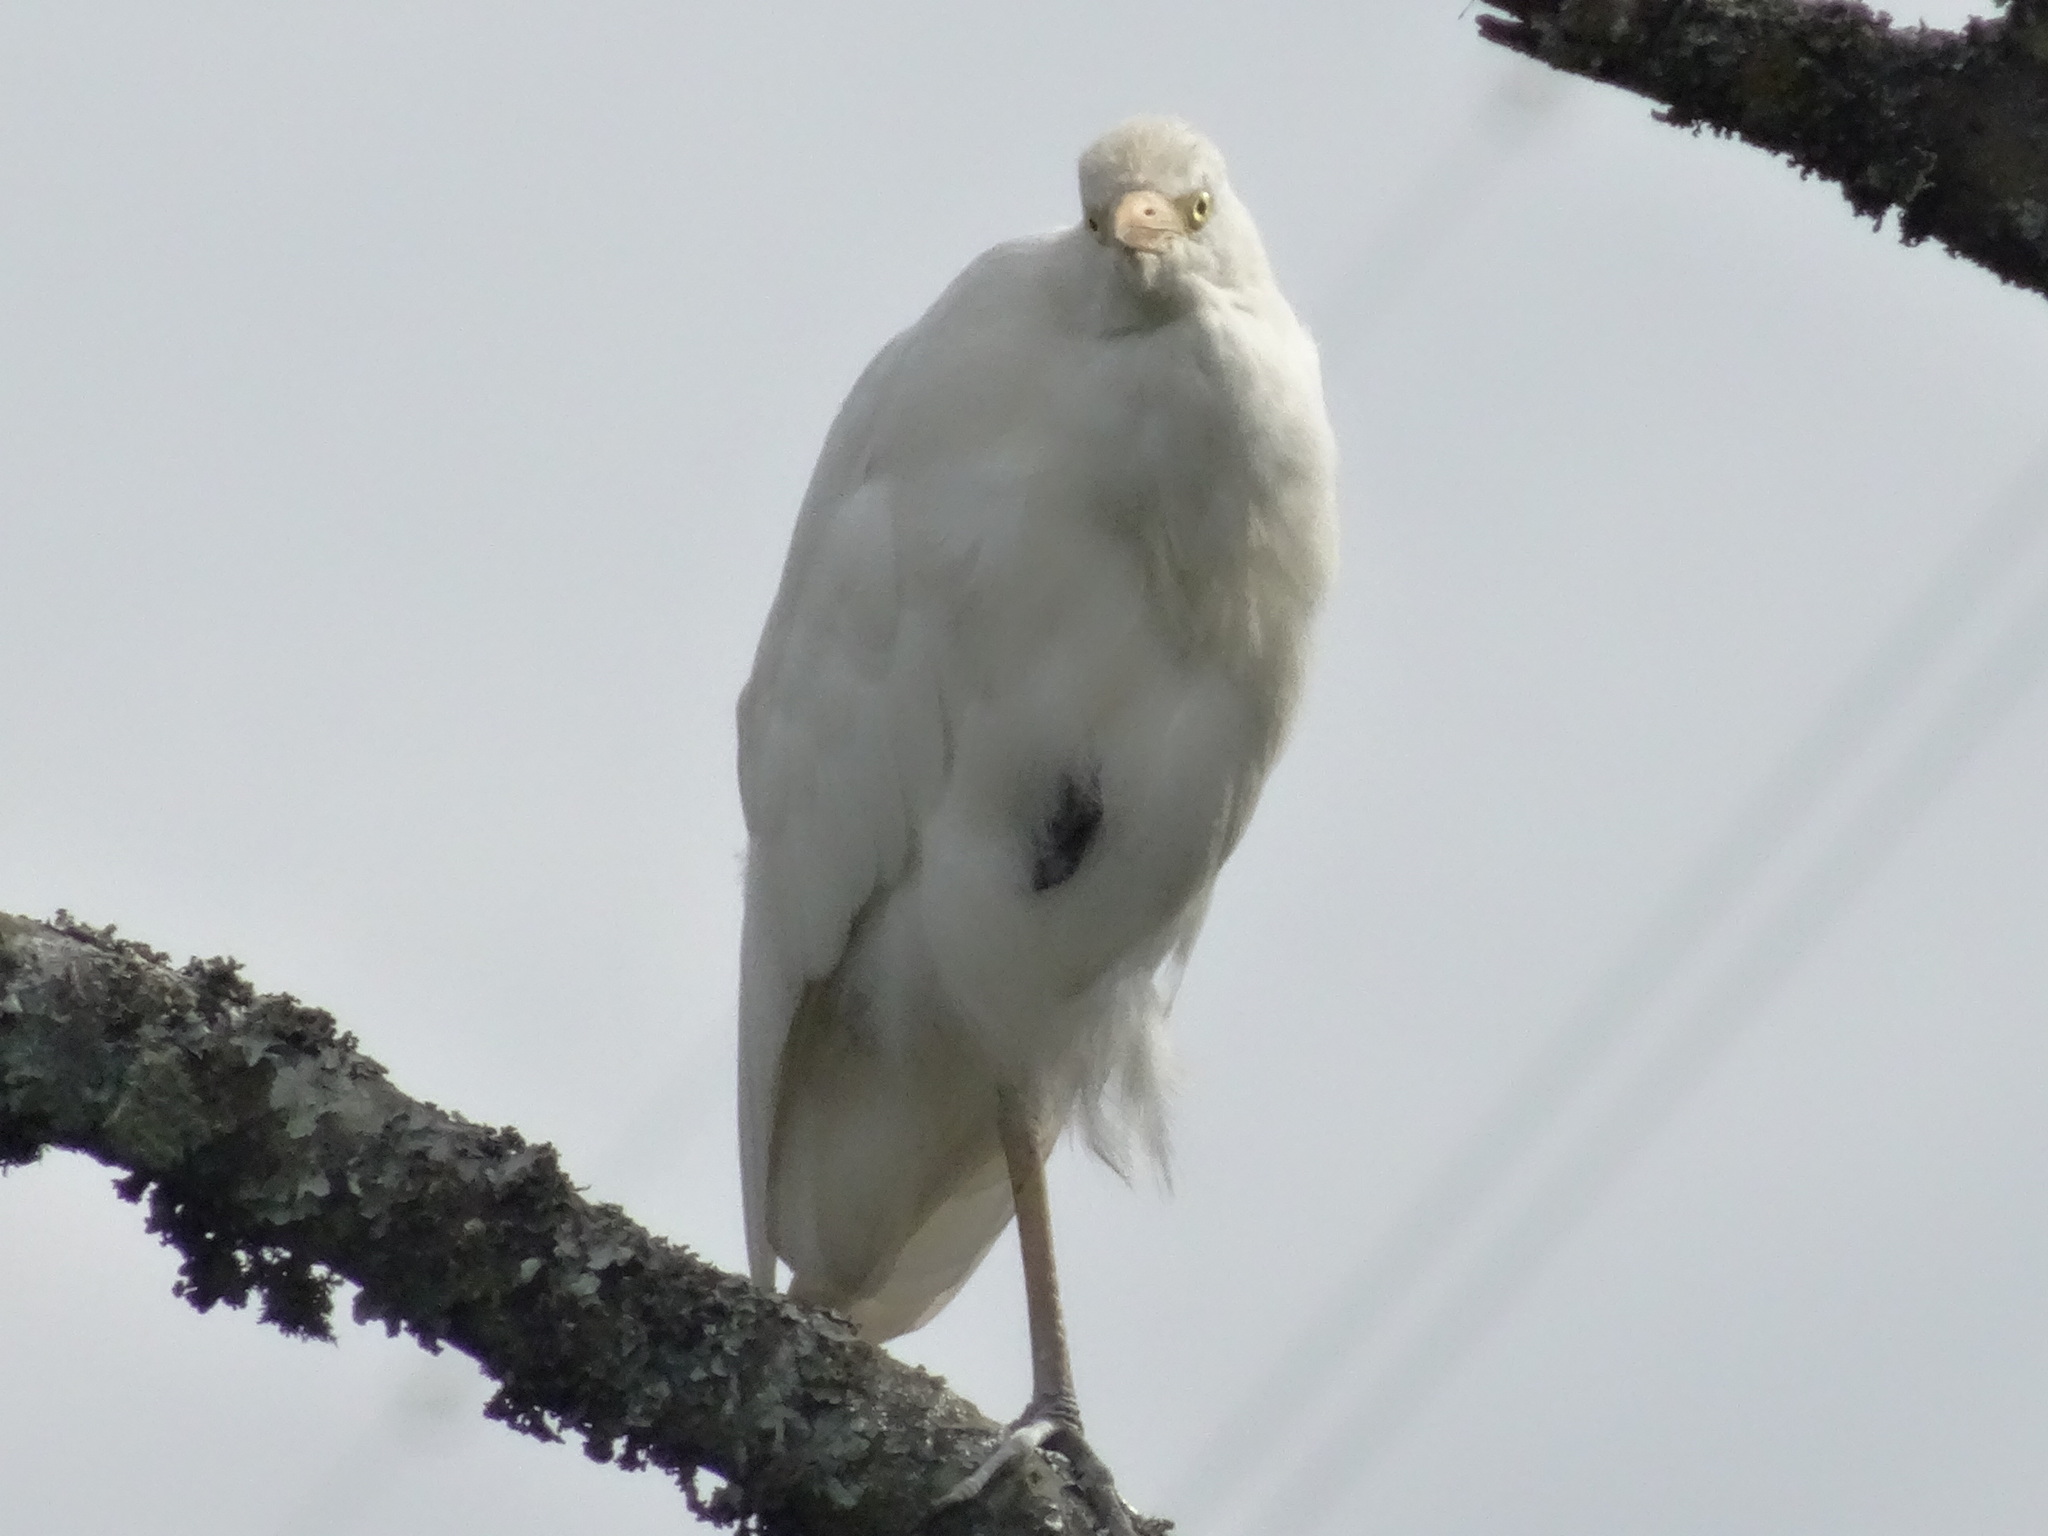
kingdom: Animalia
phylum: Chordata
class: Aves
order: Pelecaniformes
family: Ardeidae
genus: Bubulcus
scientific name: Bubulcus ibis
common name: Cattle egret
